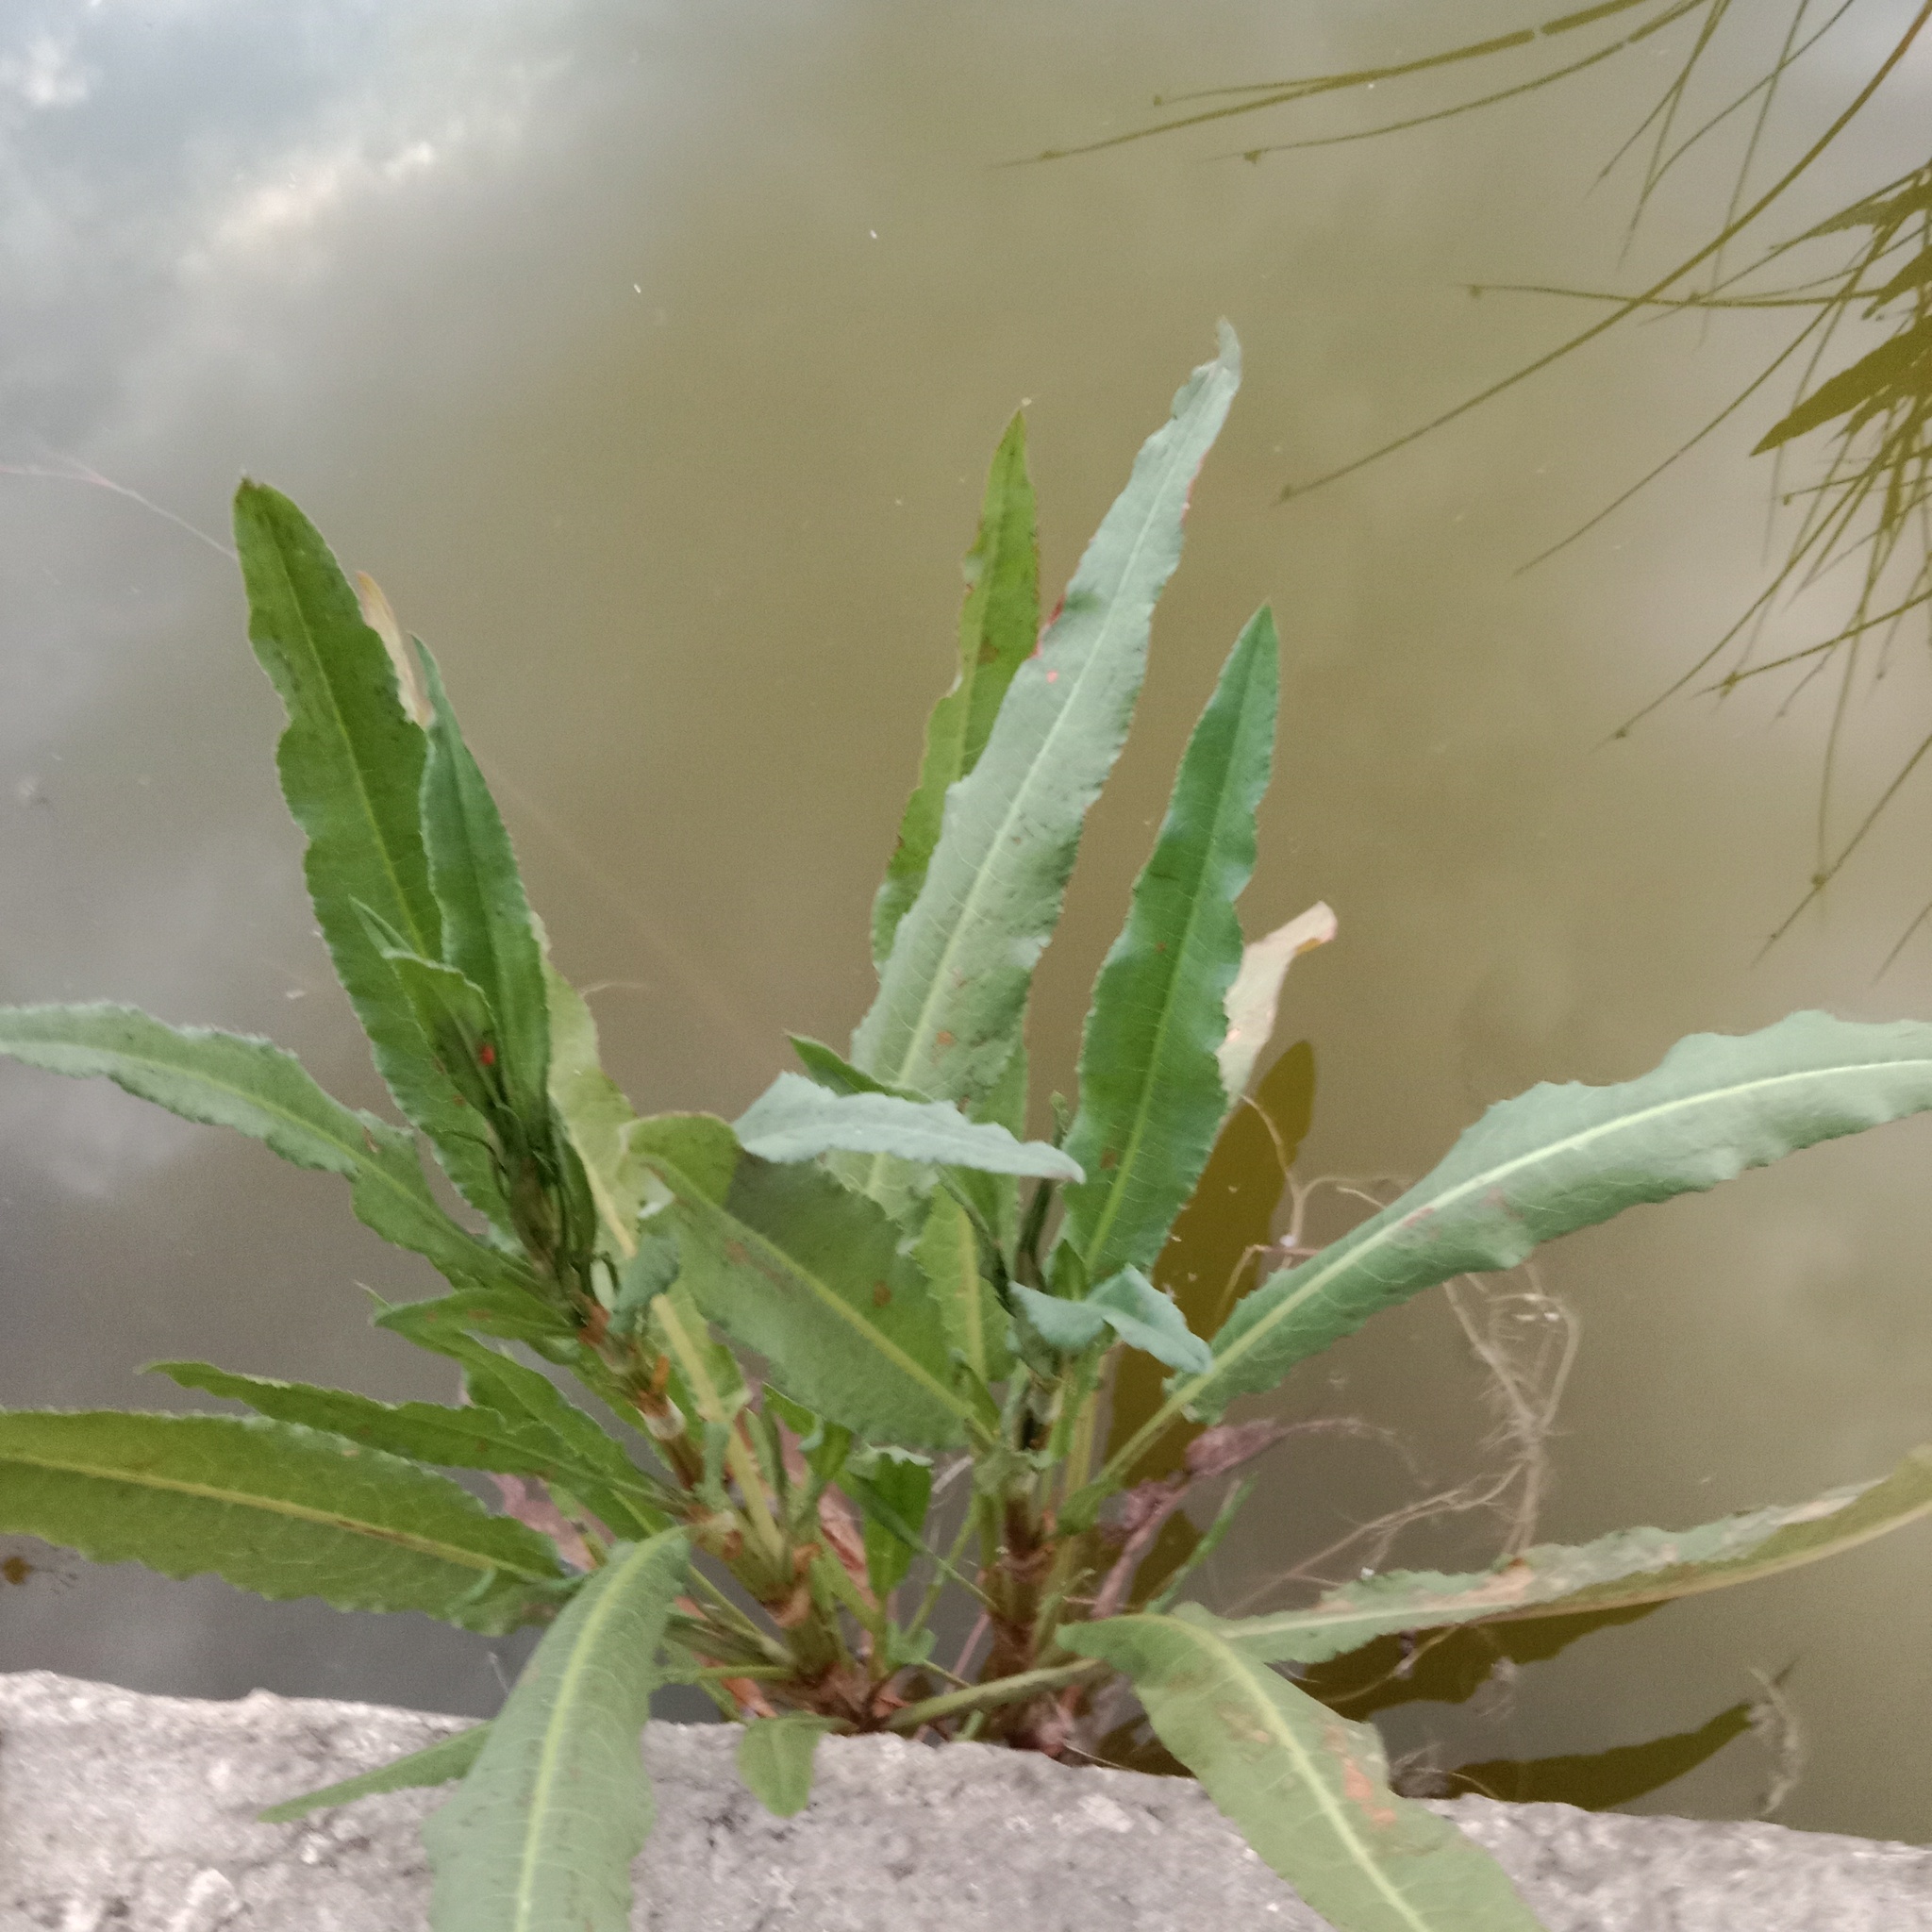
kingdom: Plantae
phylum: Tracheophyta
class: Magnoliopsida
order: Caryophyllales
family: Polygonaceae
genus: Rumex
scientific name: Rumex crispus
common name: Curled dock
